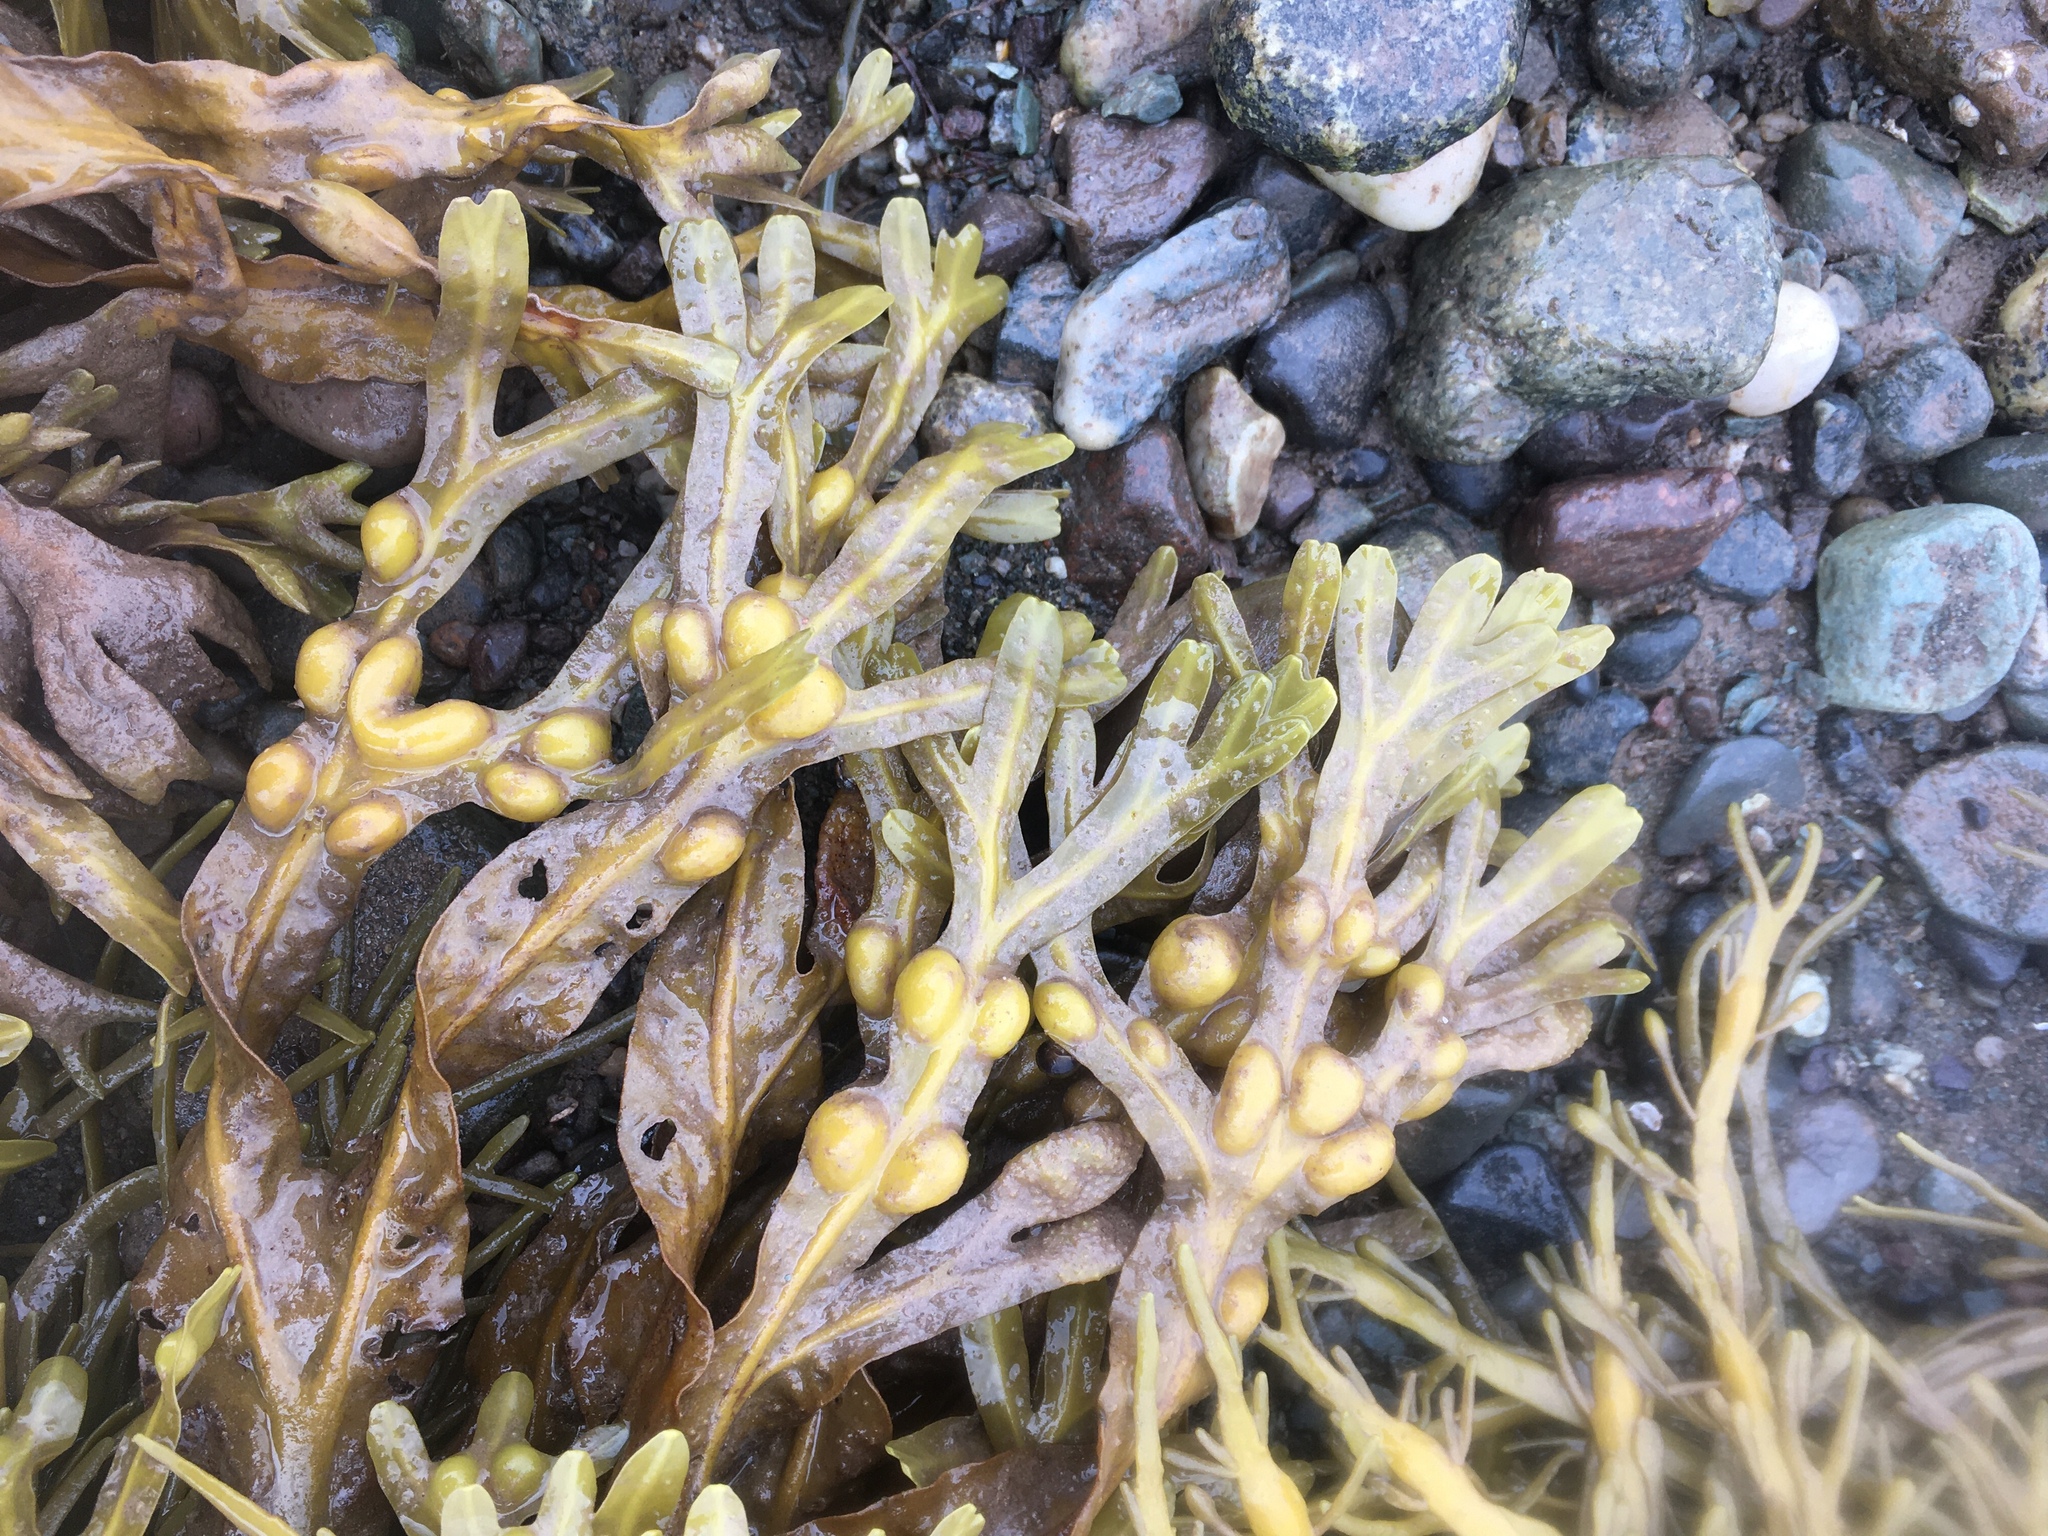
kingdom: Chromista
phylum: Ochrophyta
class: Phaeophyceae
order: Fucales
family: Fucaceae
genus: Fucus
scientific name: Fucus vesiculosus
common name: Bladder wrack
